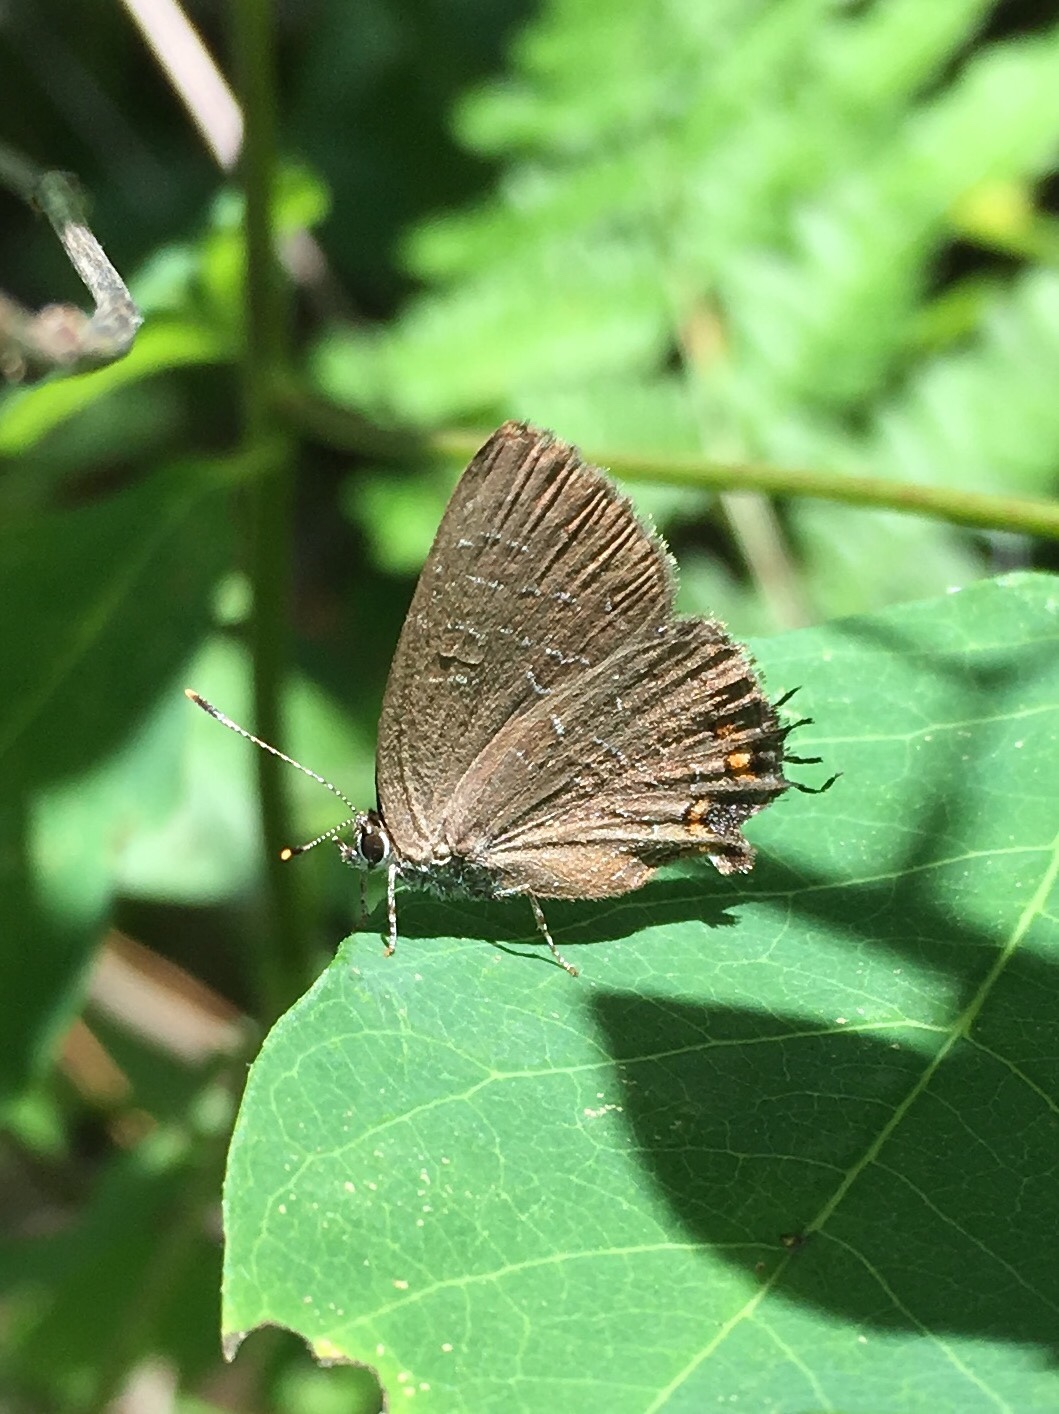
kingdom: Animalia
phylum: Arthropoda
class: Insecta
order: Lepidoptera
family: Lycaenidae
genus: Satyrium
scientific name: Satyrium liparops
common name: Striped hairstreak
